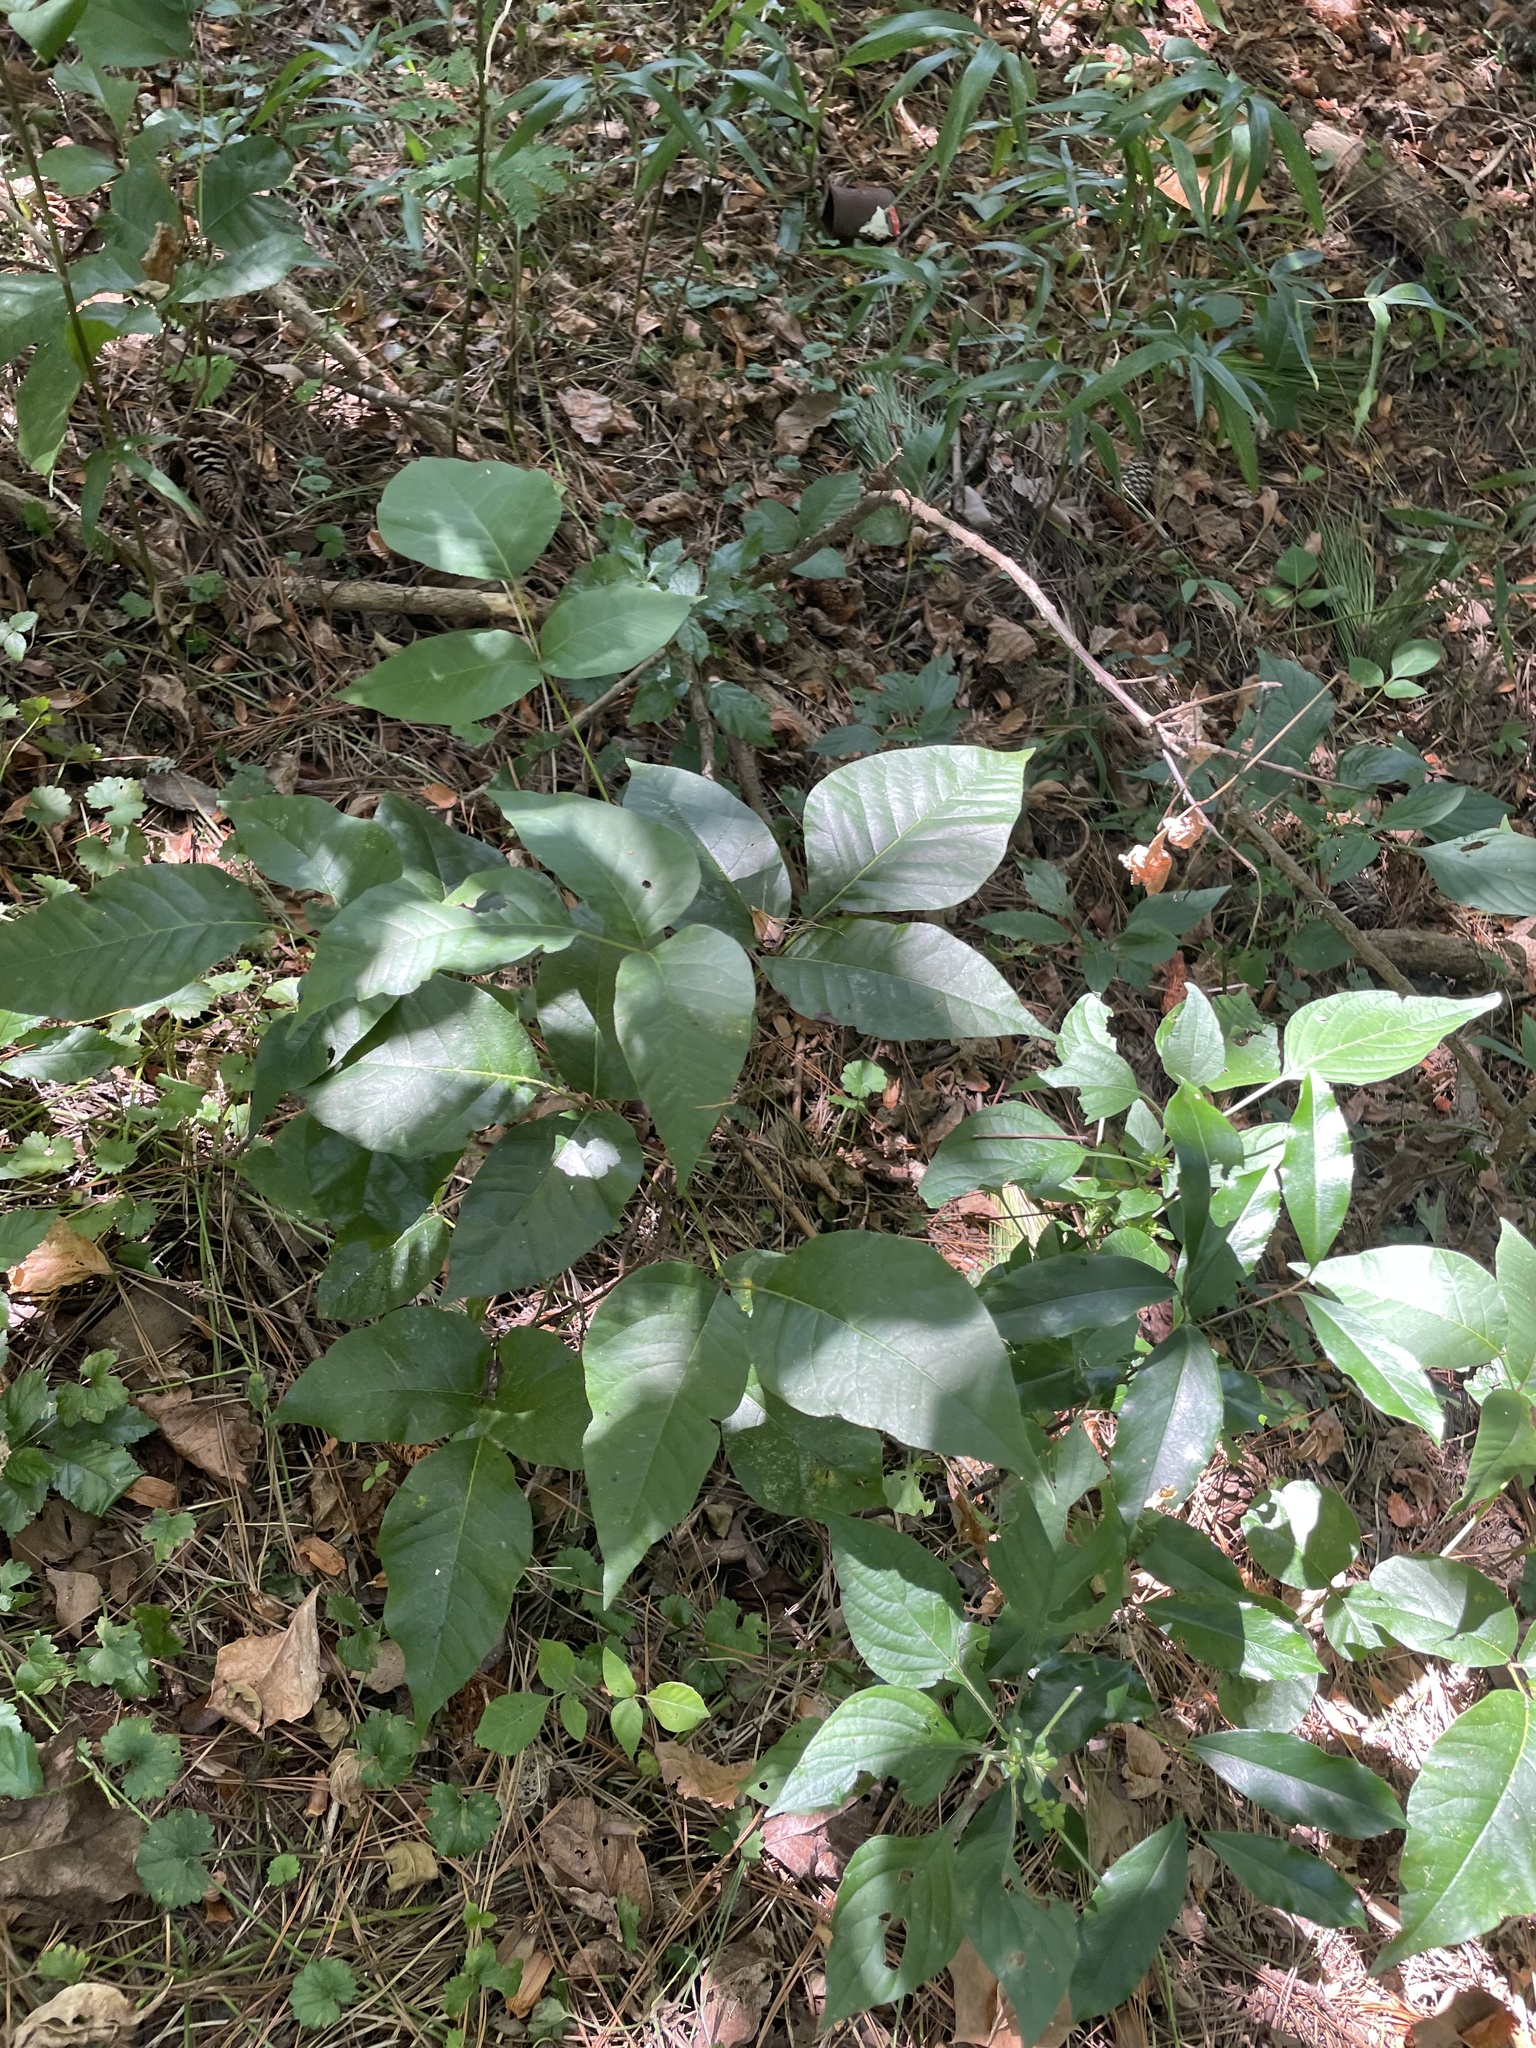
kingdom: Plantae
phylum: Tracheophyta
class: Magnoliopsida
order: Sapindales
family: Anacardiaceae
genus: Toxicodendron
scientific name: Toxicodendron radicans
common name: Poison ivy
